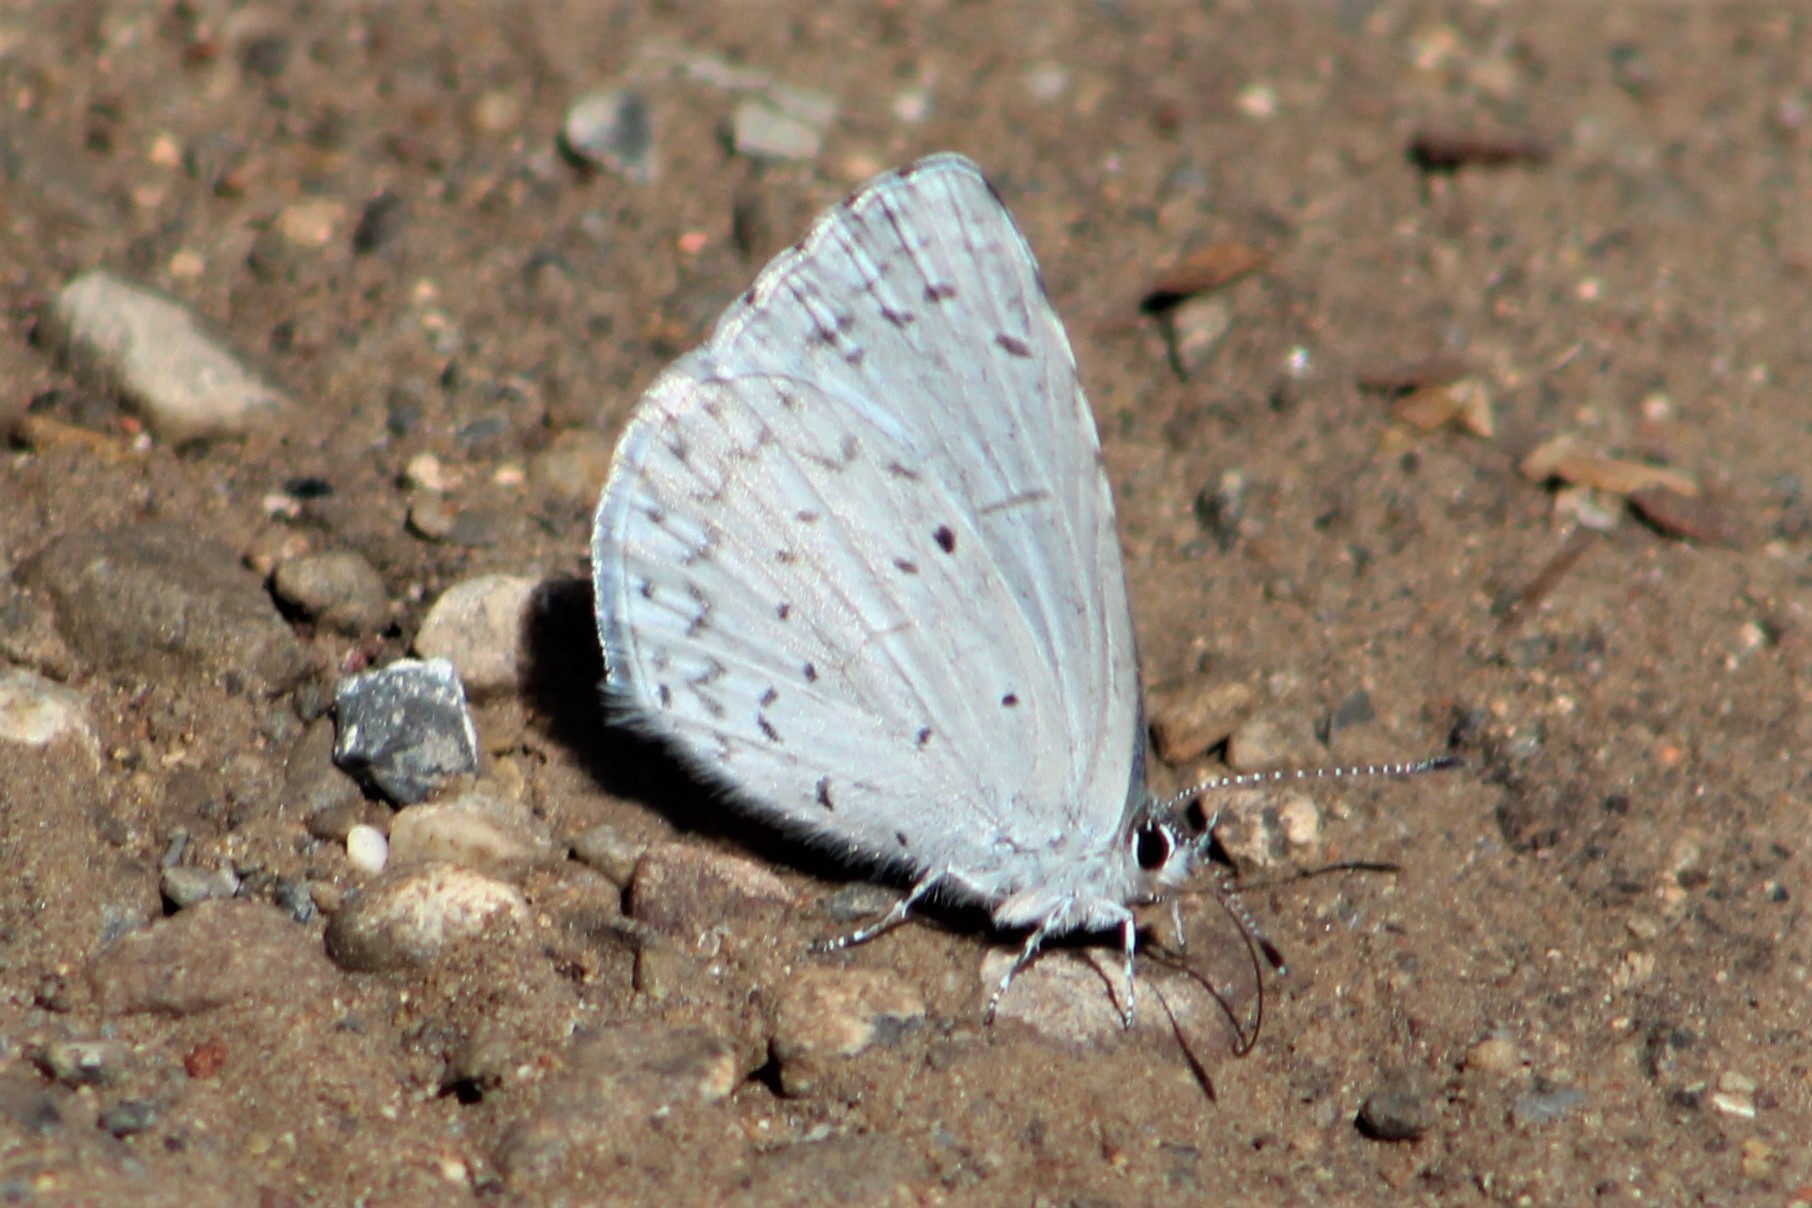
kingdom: Animalia
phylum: Arthropoda
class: Insecta
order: Lepidoptera
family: Lycaenidae
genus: Celastrina
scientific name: Celastrina ladon
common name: Spring azure
